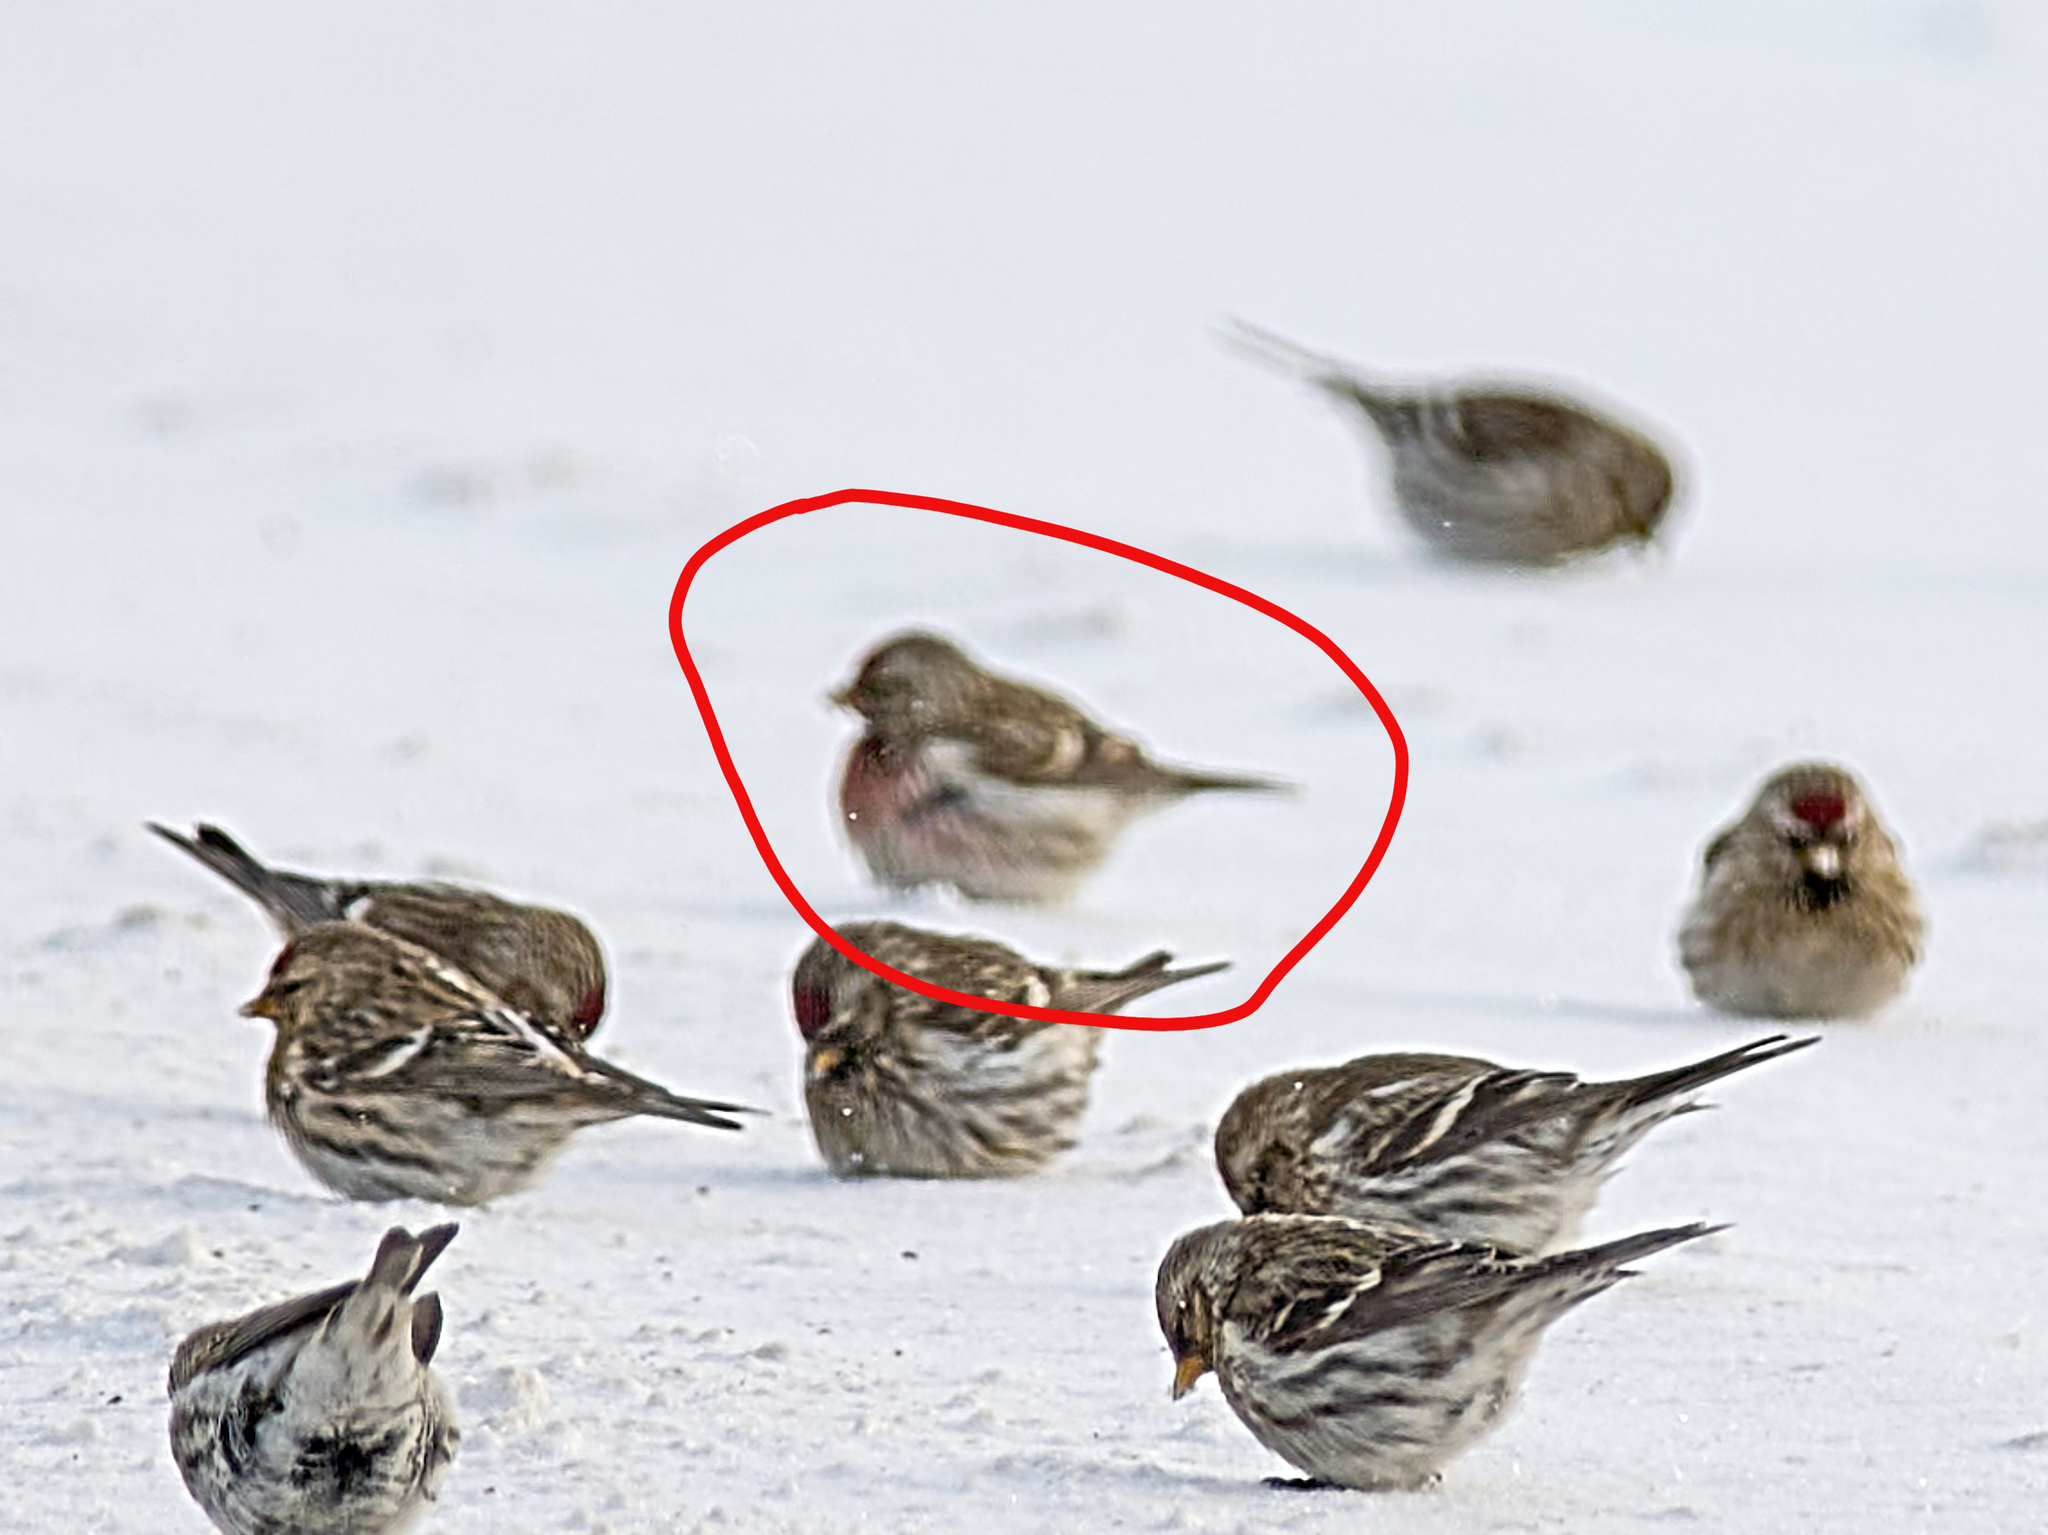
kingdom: Animalia
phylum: Chordata
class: Aves
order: Passeriformes
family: Fringillidae
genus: Acanthis
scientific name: Acanthis flammea
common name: Common redpoll
